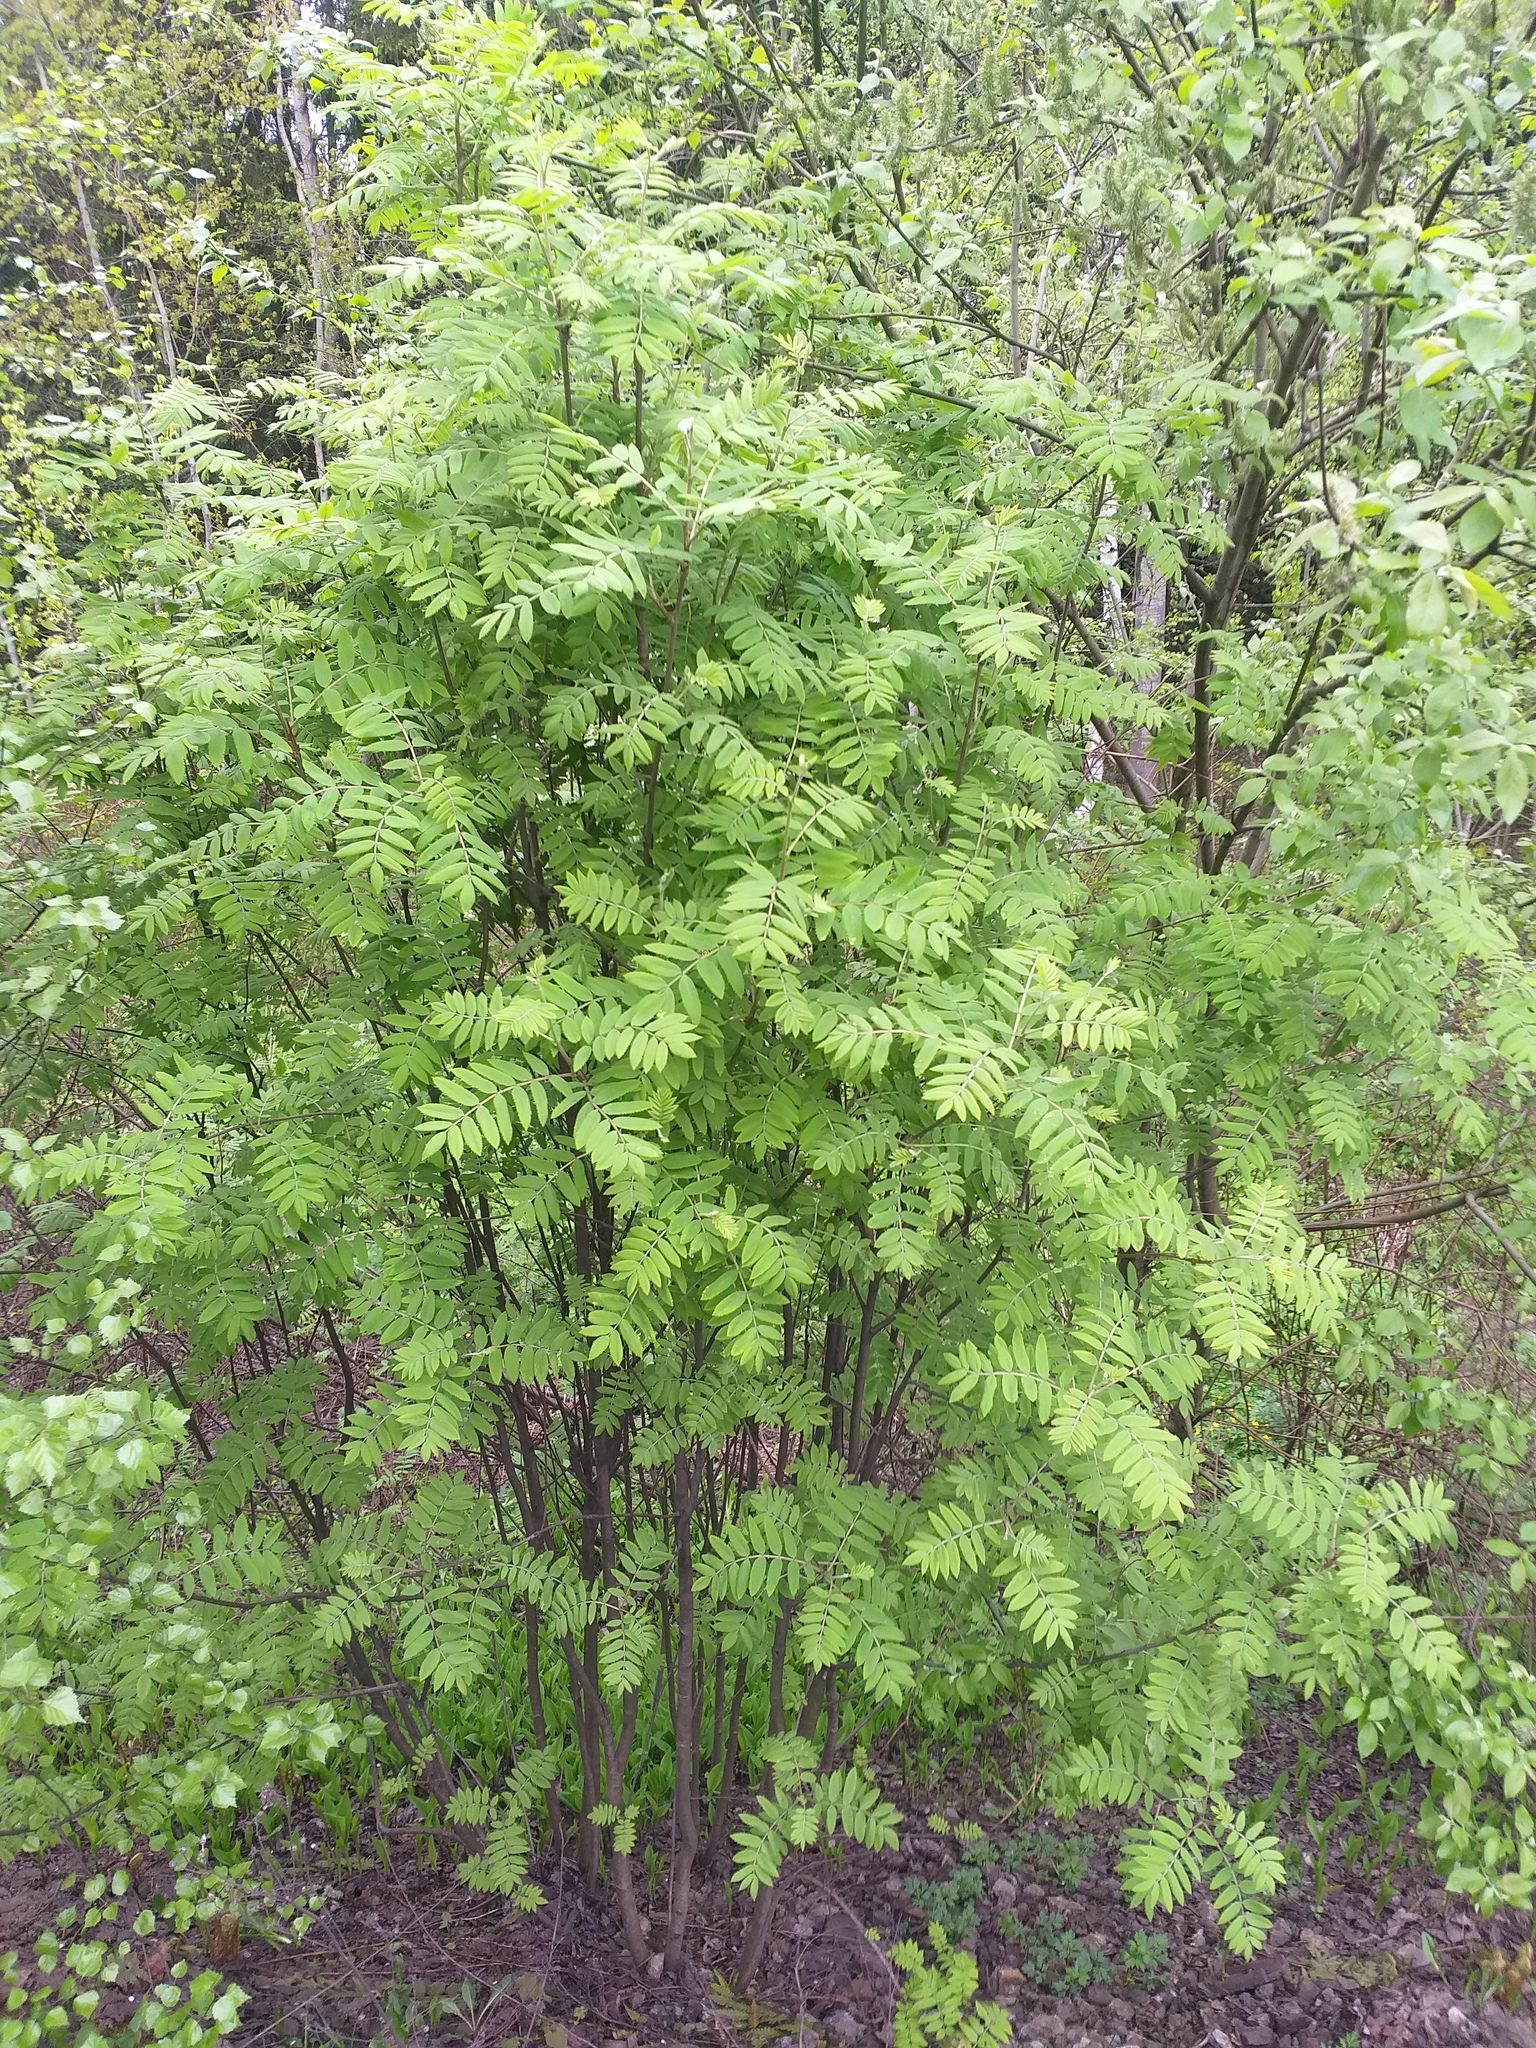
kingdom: Plantae
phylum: Tracheophyta
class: Magnoliopsida
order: Rosales
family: Rosaceae
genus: Sorbus
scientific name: Sorbus aucuparia
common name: Rowan
